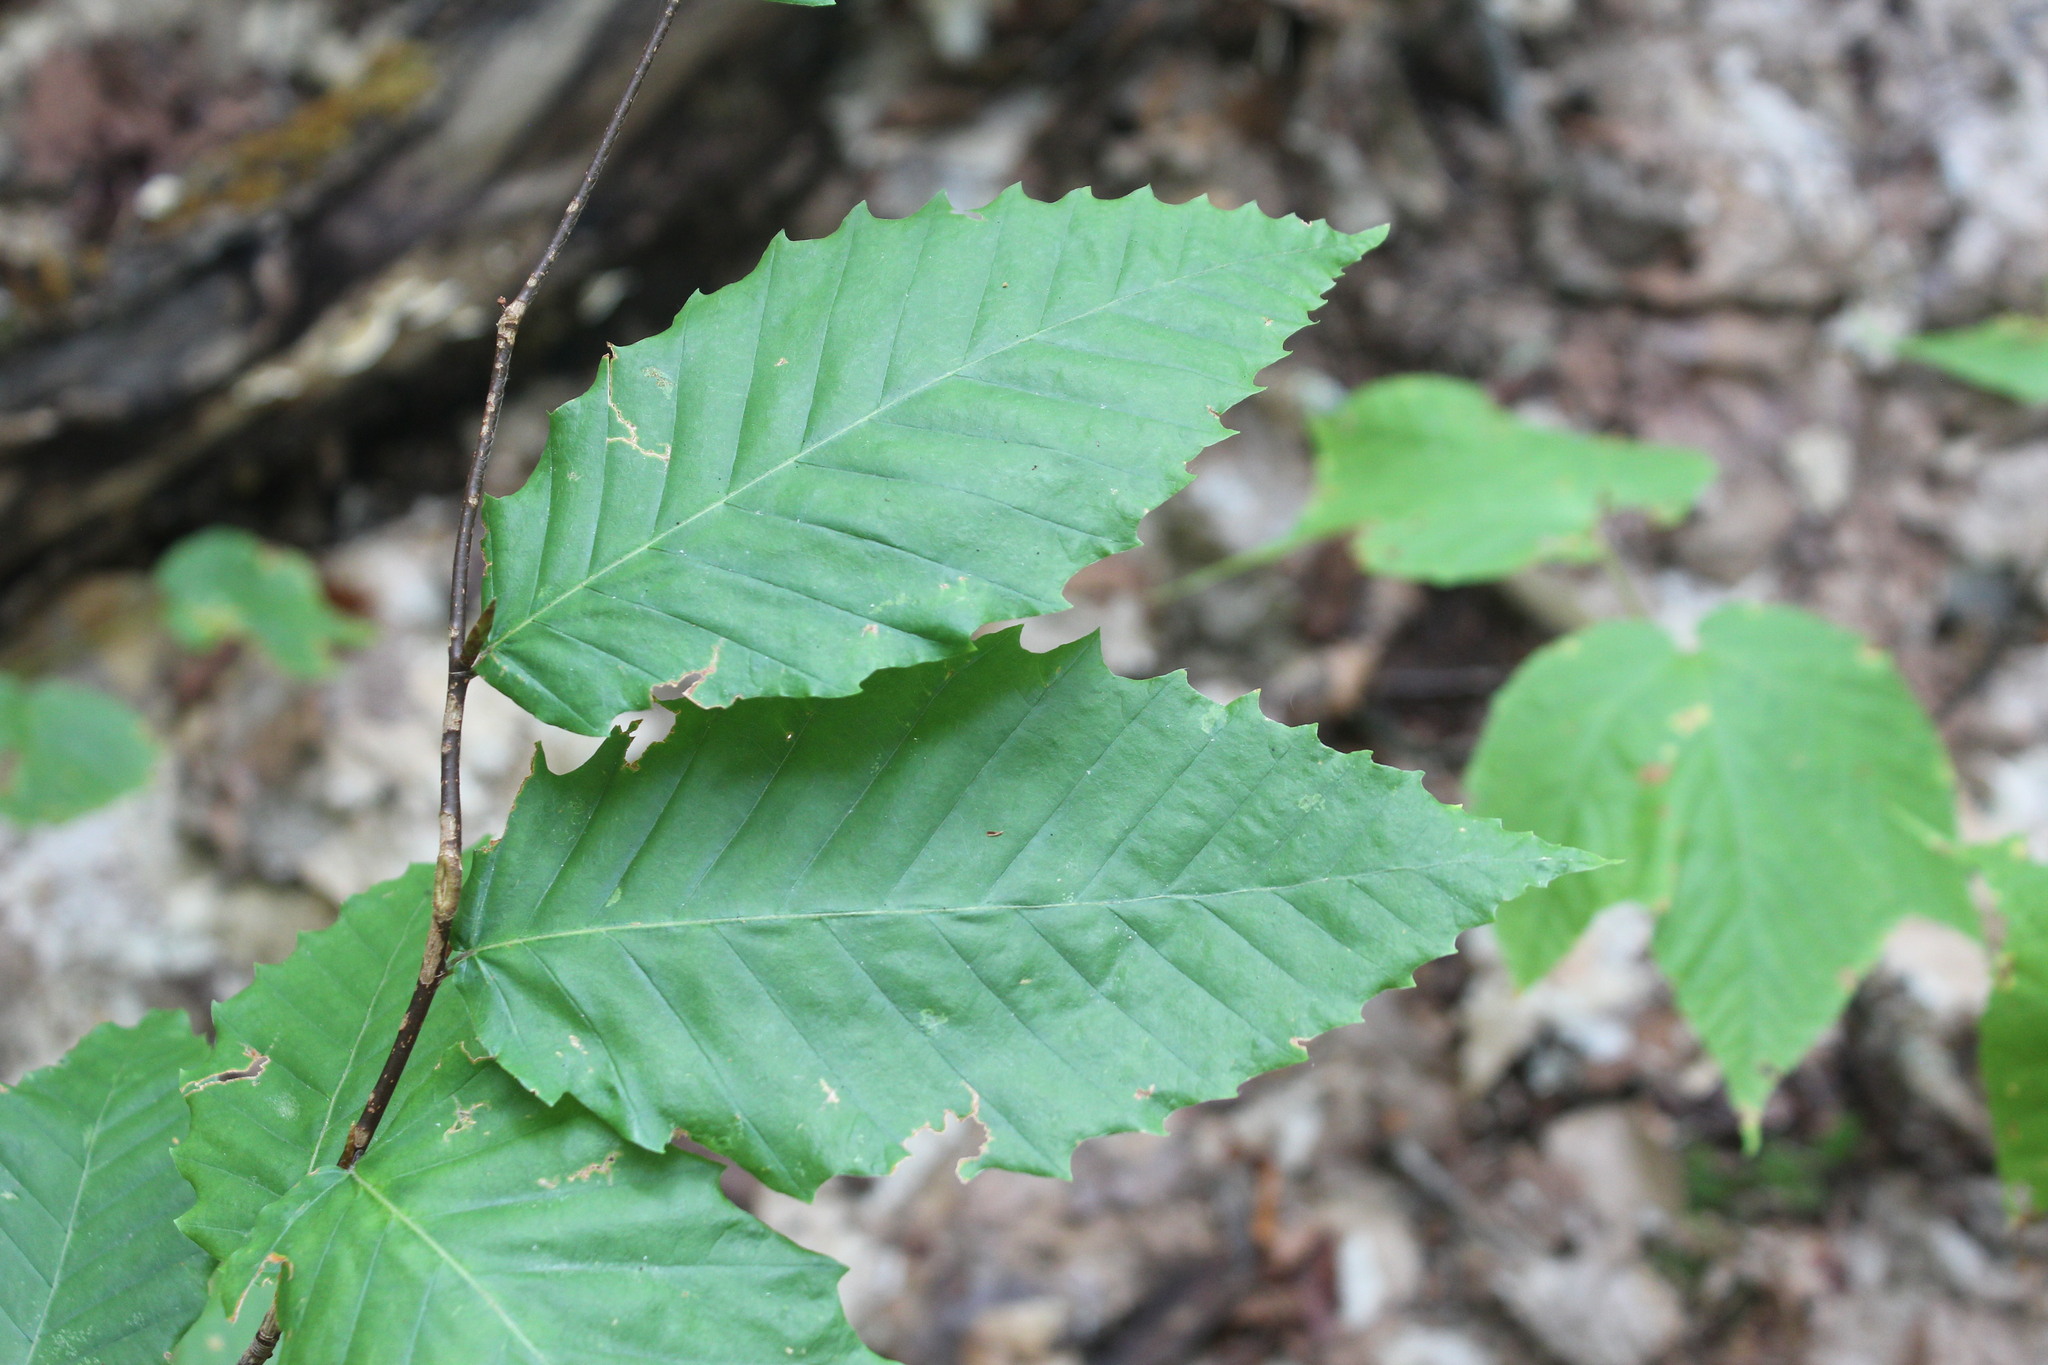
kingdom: Plantae
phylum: Tracheophyta
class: Magnoliopsida
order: Fagales
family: Fagaceae
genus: Fagus
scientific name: Fagus grandifolia
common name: American beech
